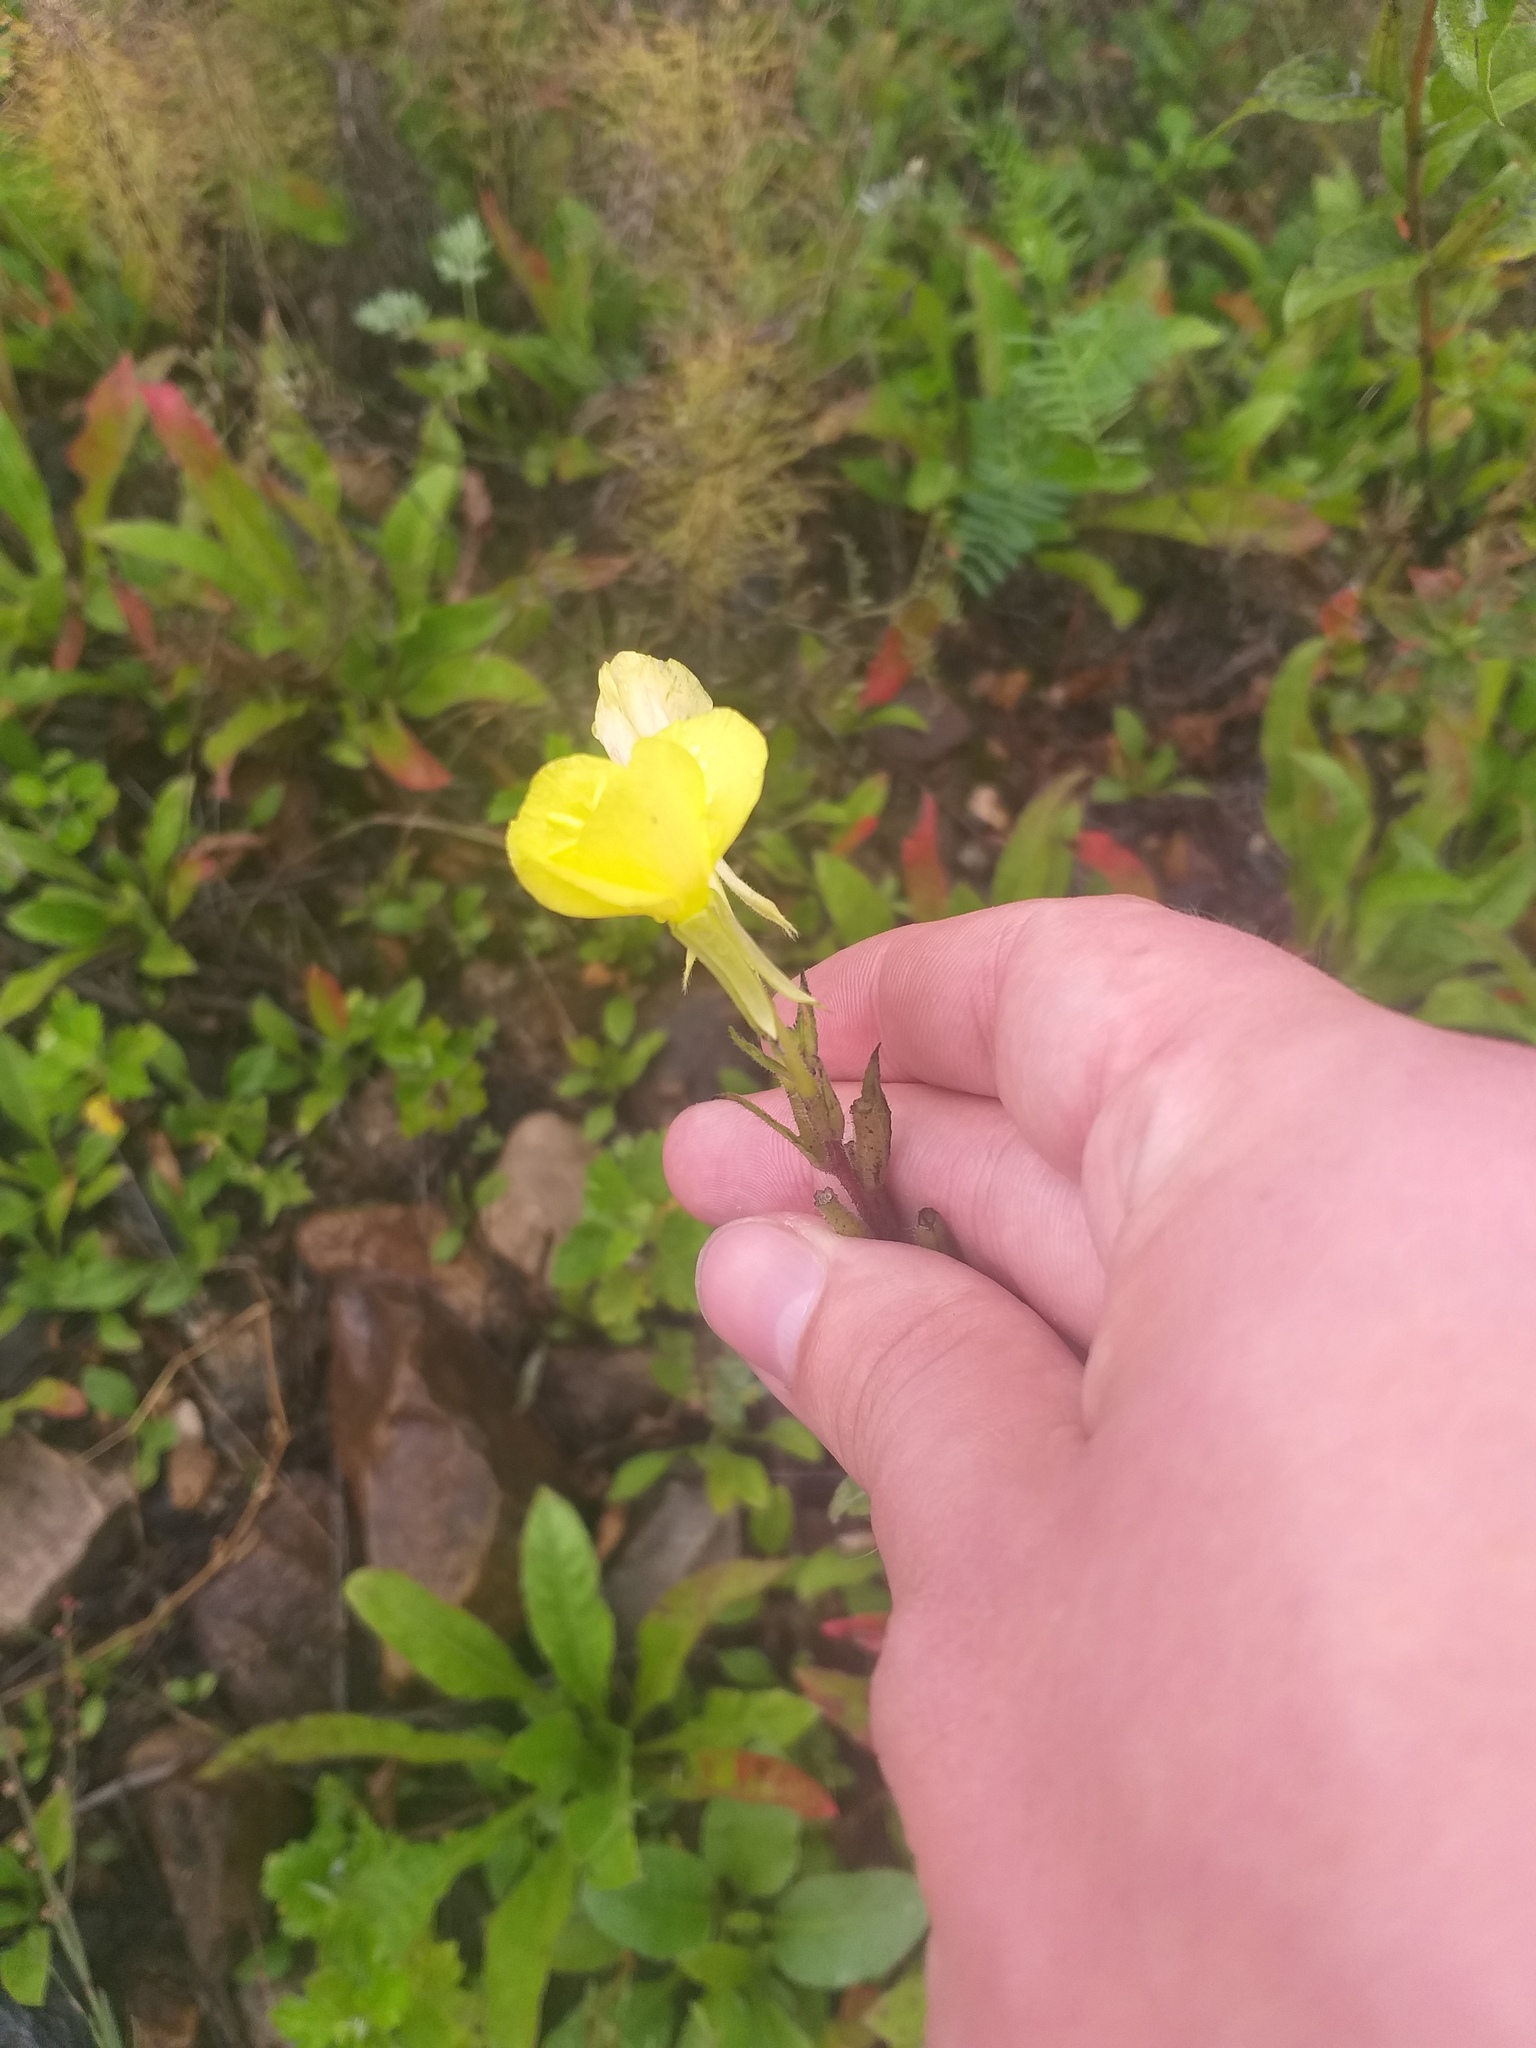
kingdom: Plantae
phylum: Tracheophyta
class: Magnoliopsida
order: Myrtales
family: Onagraceae
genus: Oenothera
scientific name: Oenothera rubricaulis
